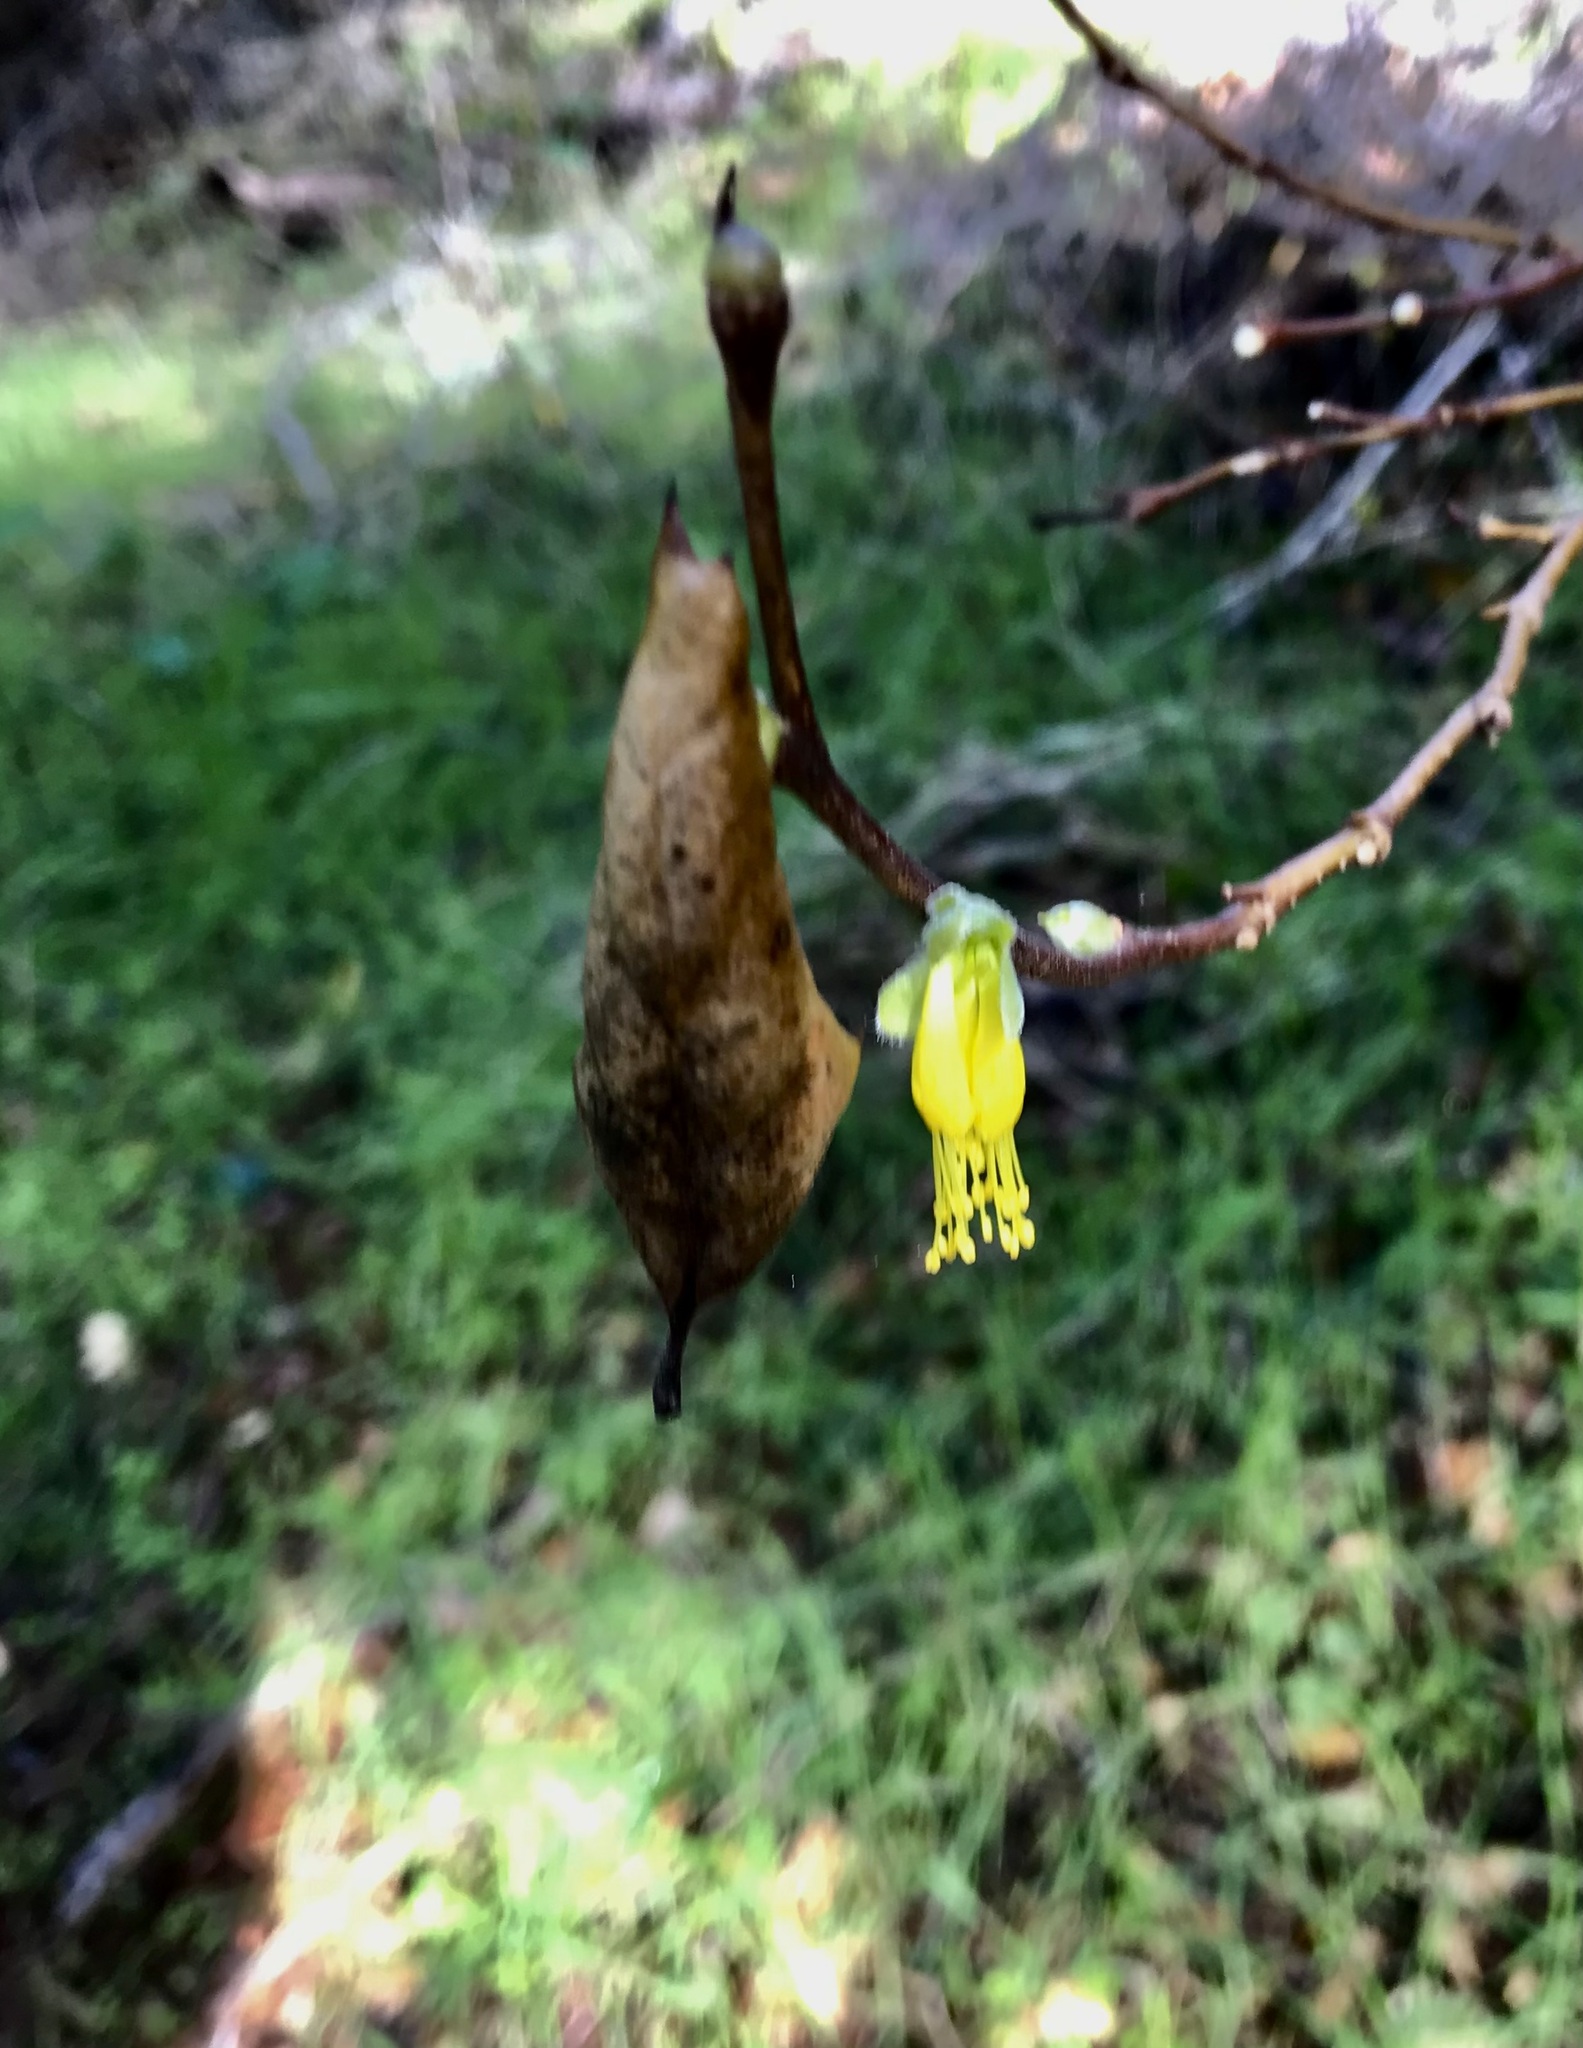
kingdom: Plantae
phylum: Tracheophyta
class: Magnoliopsida
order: Malvales
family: Thymelaeaceae
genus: Dirca
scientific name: Dirca occidentalis
